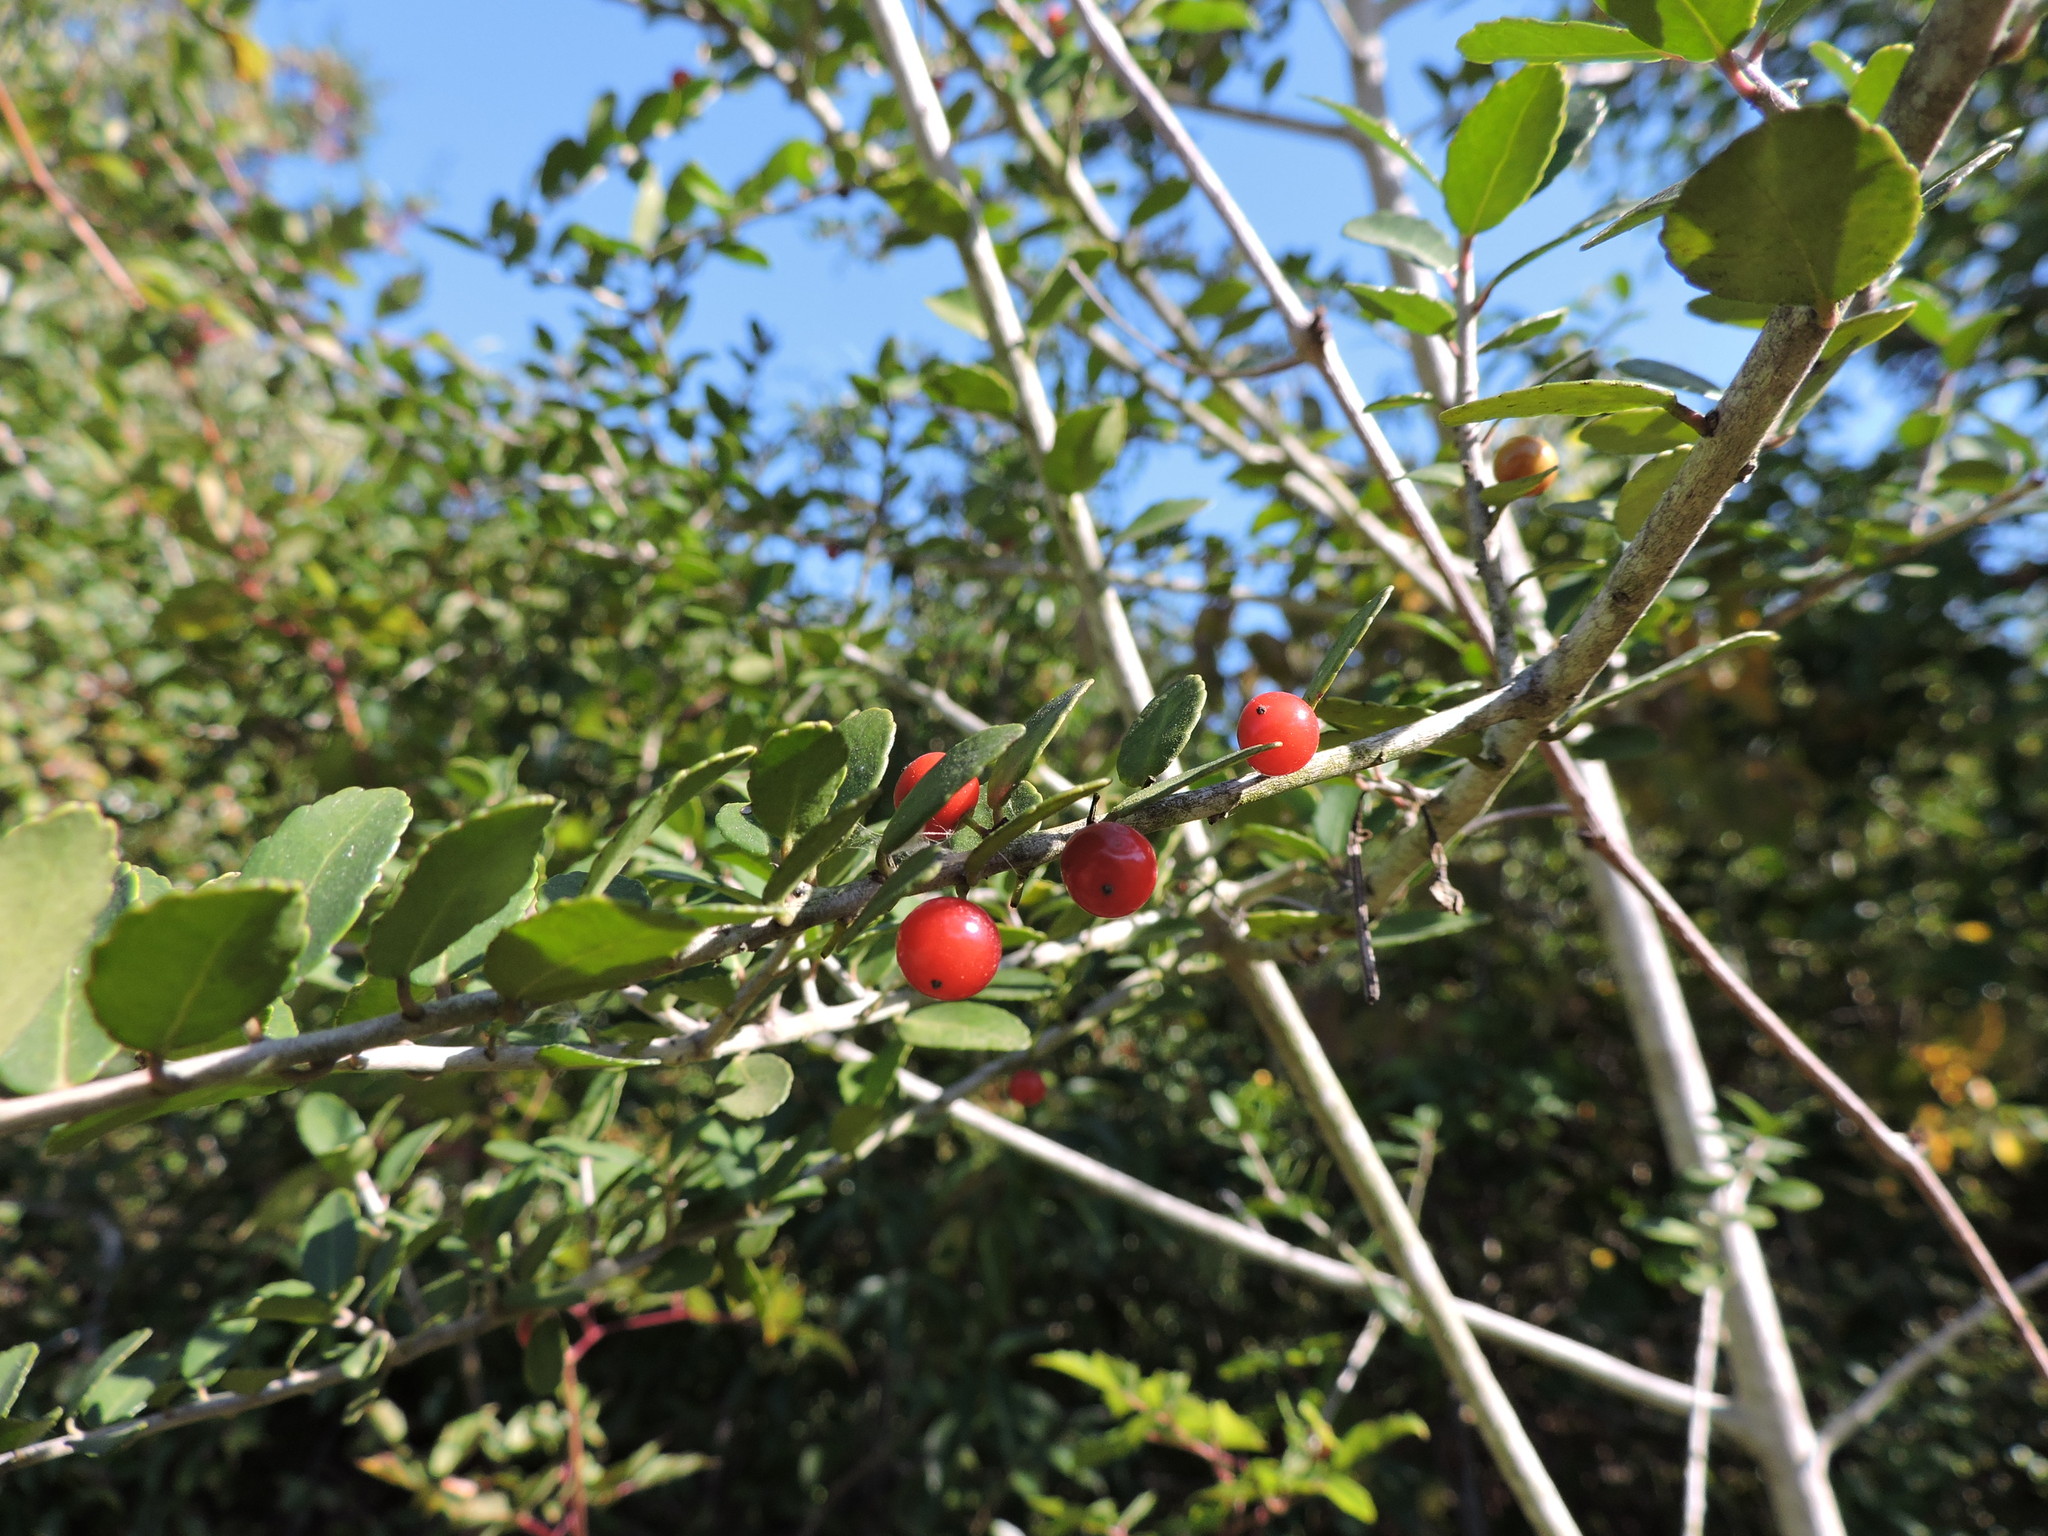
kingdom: Plantae
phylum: Tracheophyta
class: Magnoliopsida
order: Aquifoliales
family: Aquifoliaceae
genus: Ilex
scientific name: Ilex vomitoria
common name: Yaupon holly
